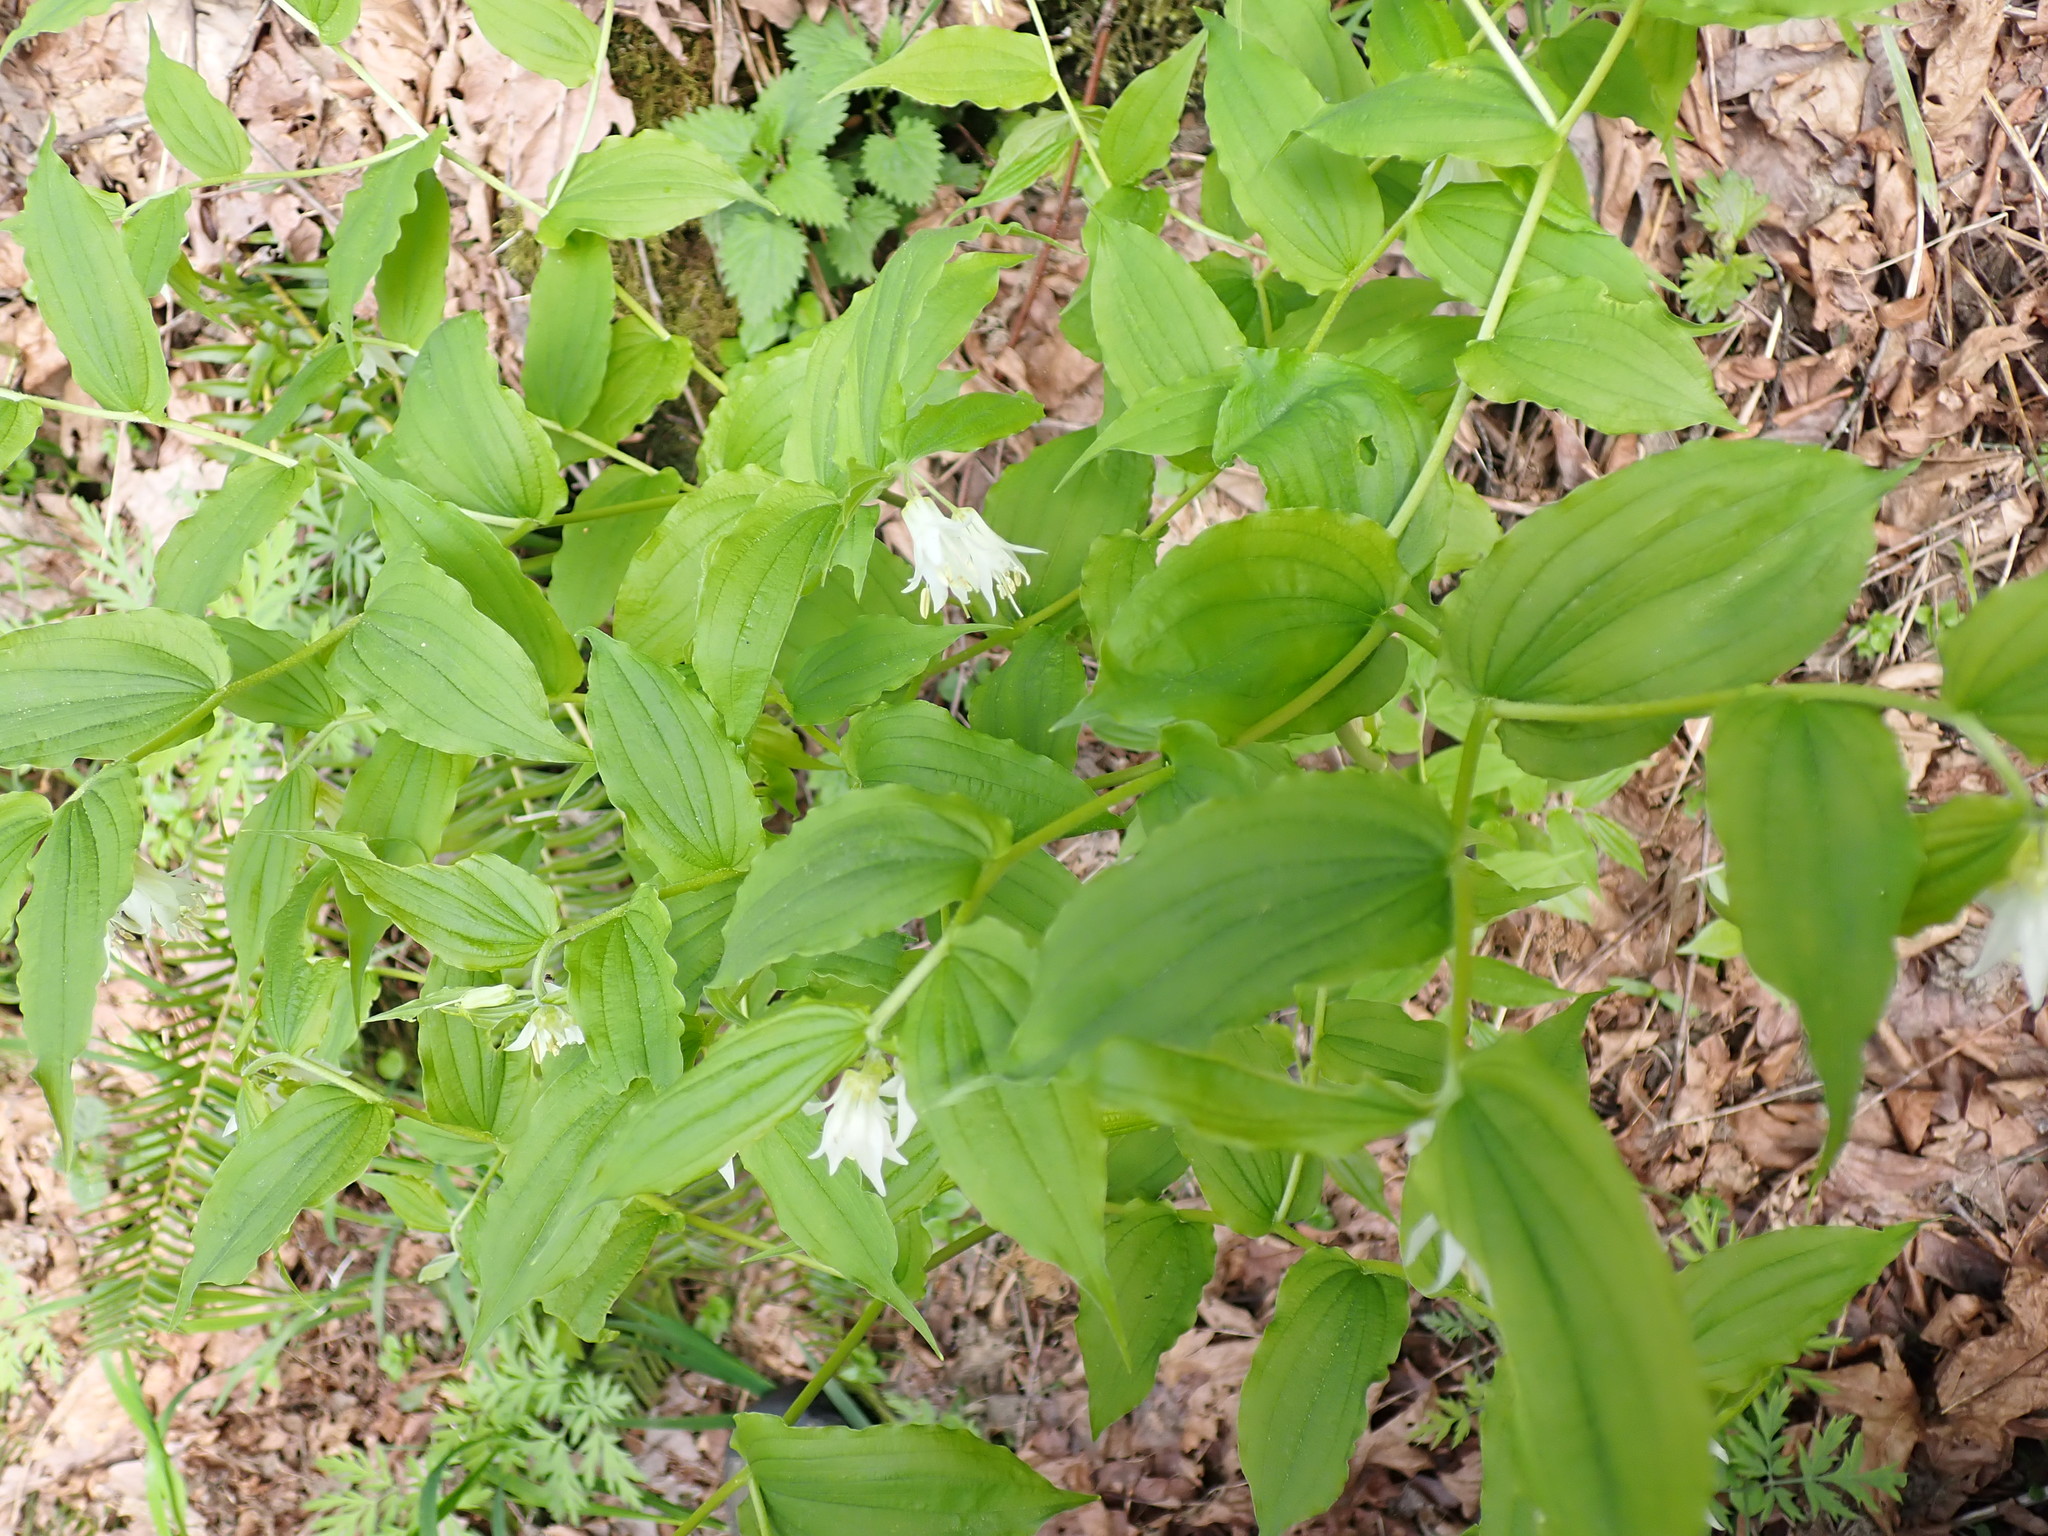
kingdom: Plantae
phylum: Tracheophyta
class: Liliopsida
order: Liliales
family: Liliaceae
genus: Prosartes
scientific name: Prosartes hookeri
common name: Fairy-bells
